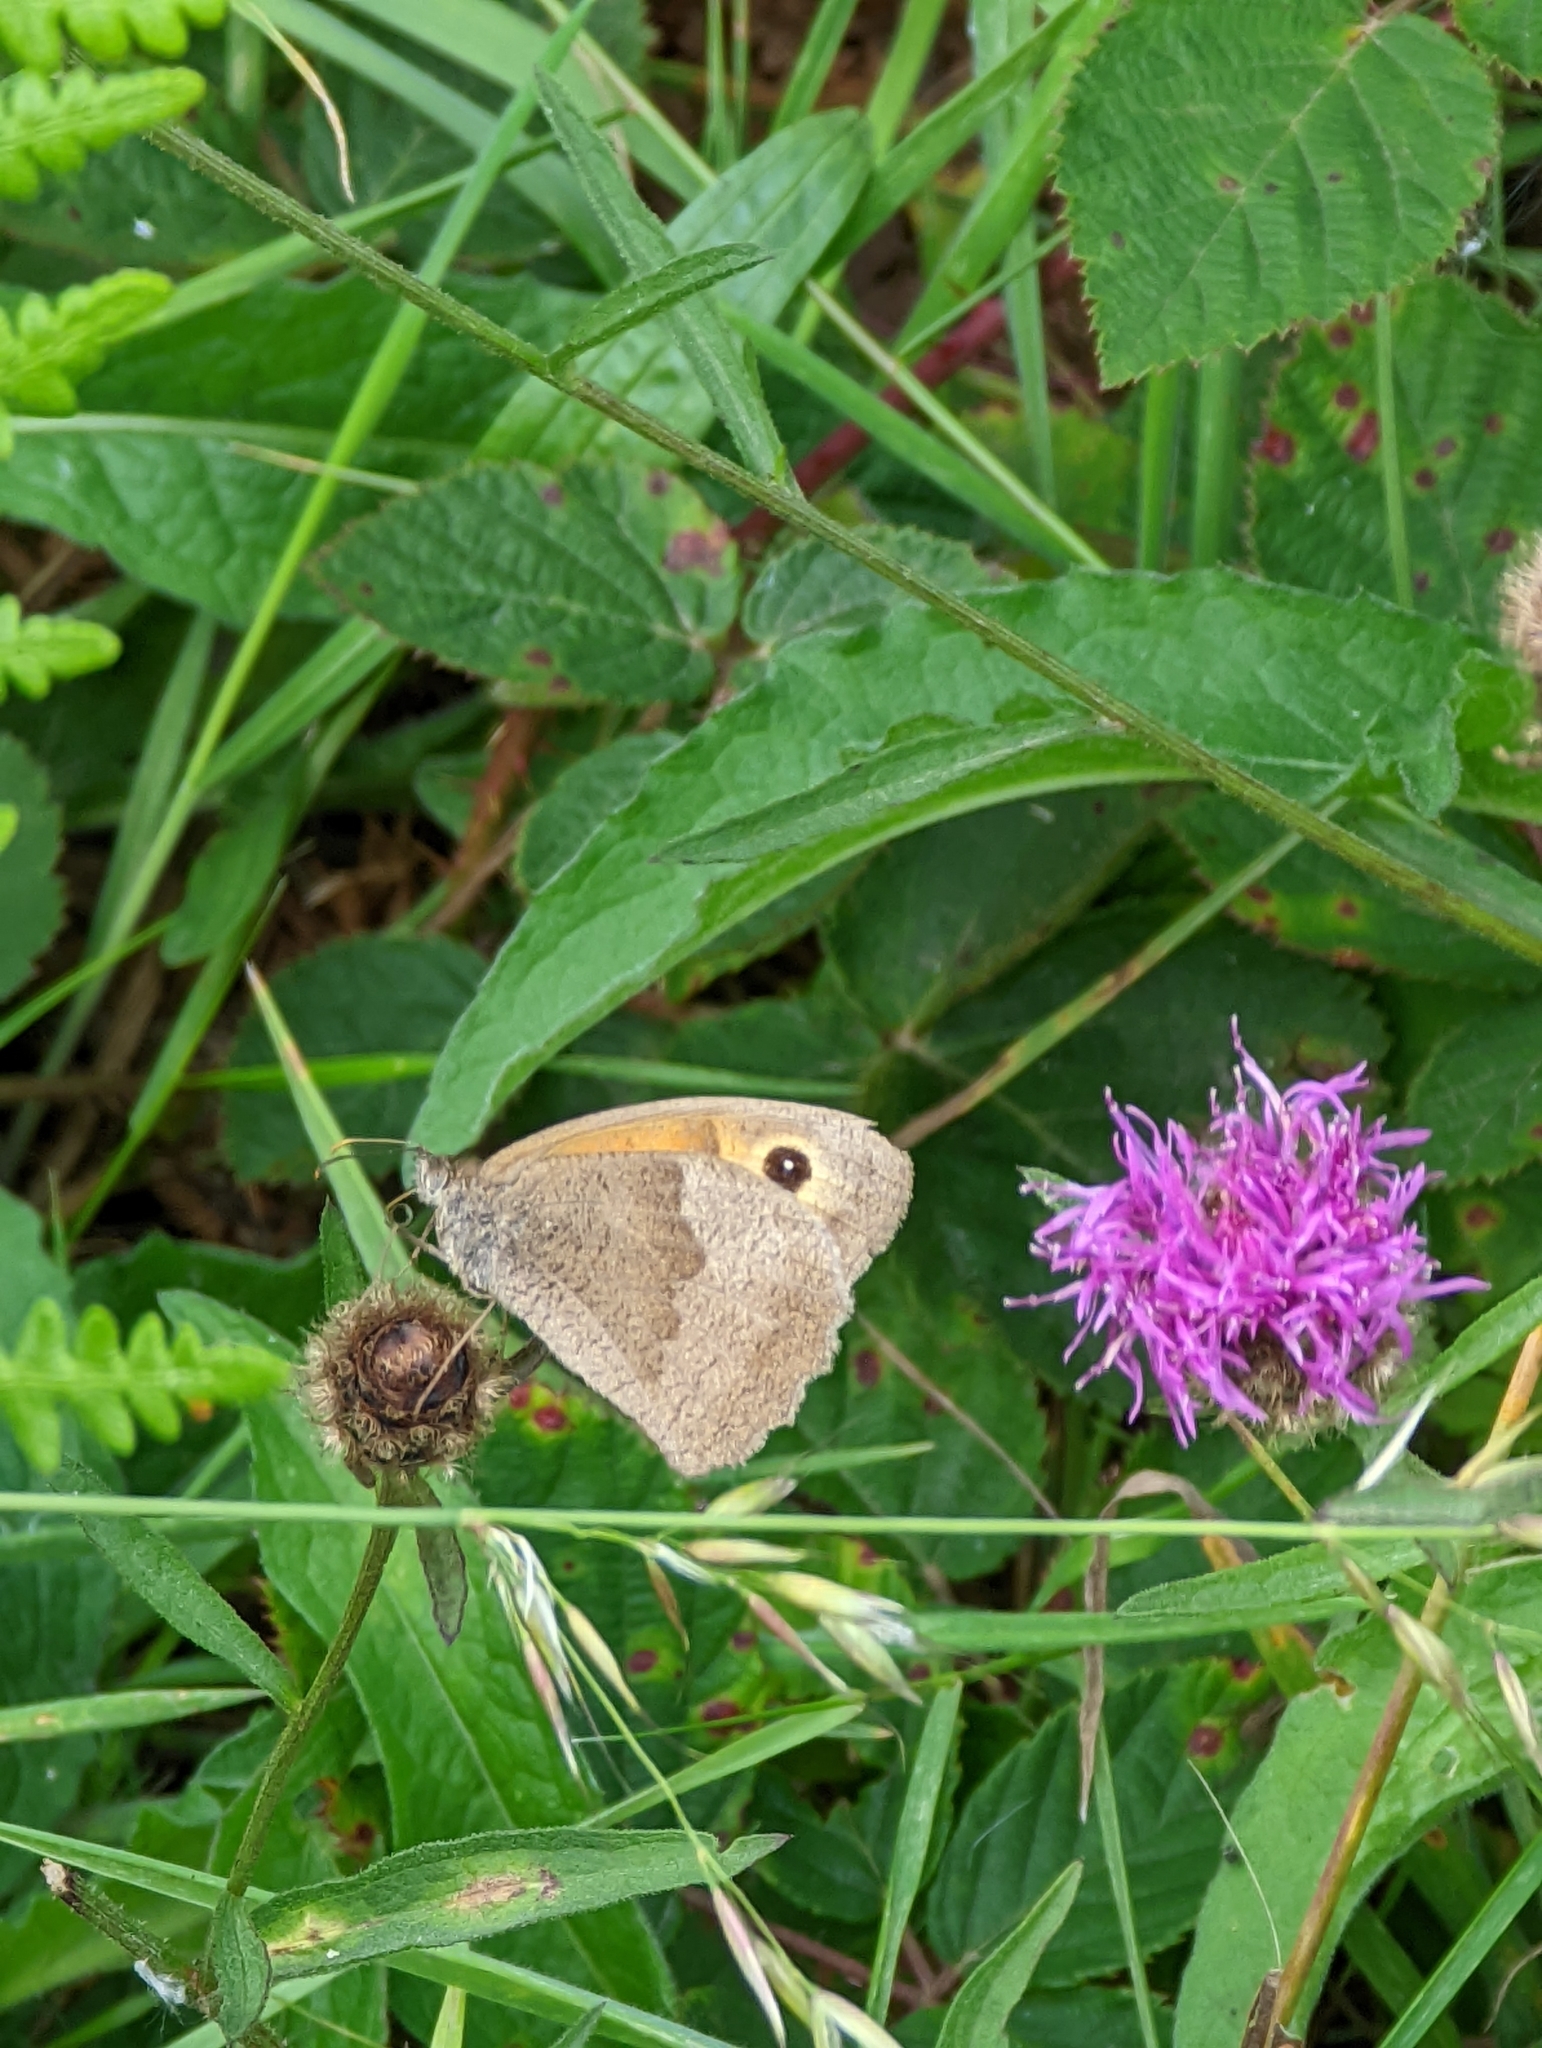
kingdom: Animalia
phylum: Arthropoda
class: Insecta
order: Lepidoptera
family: Nymphalidae
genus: Maniola
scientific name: Maniola jurtina
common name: Meadow brown
